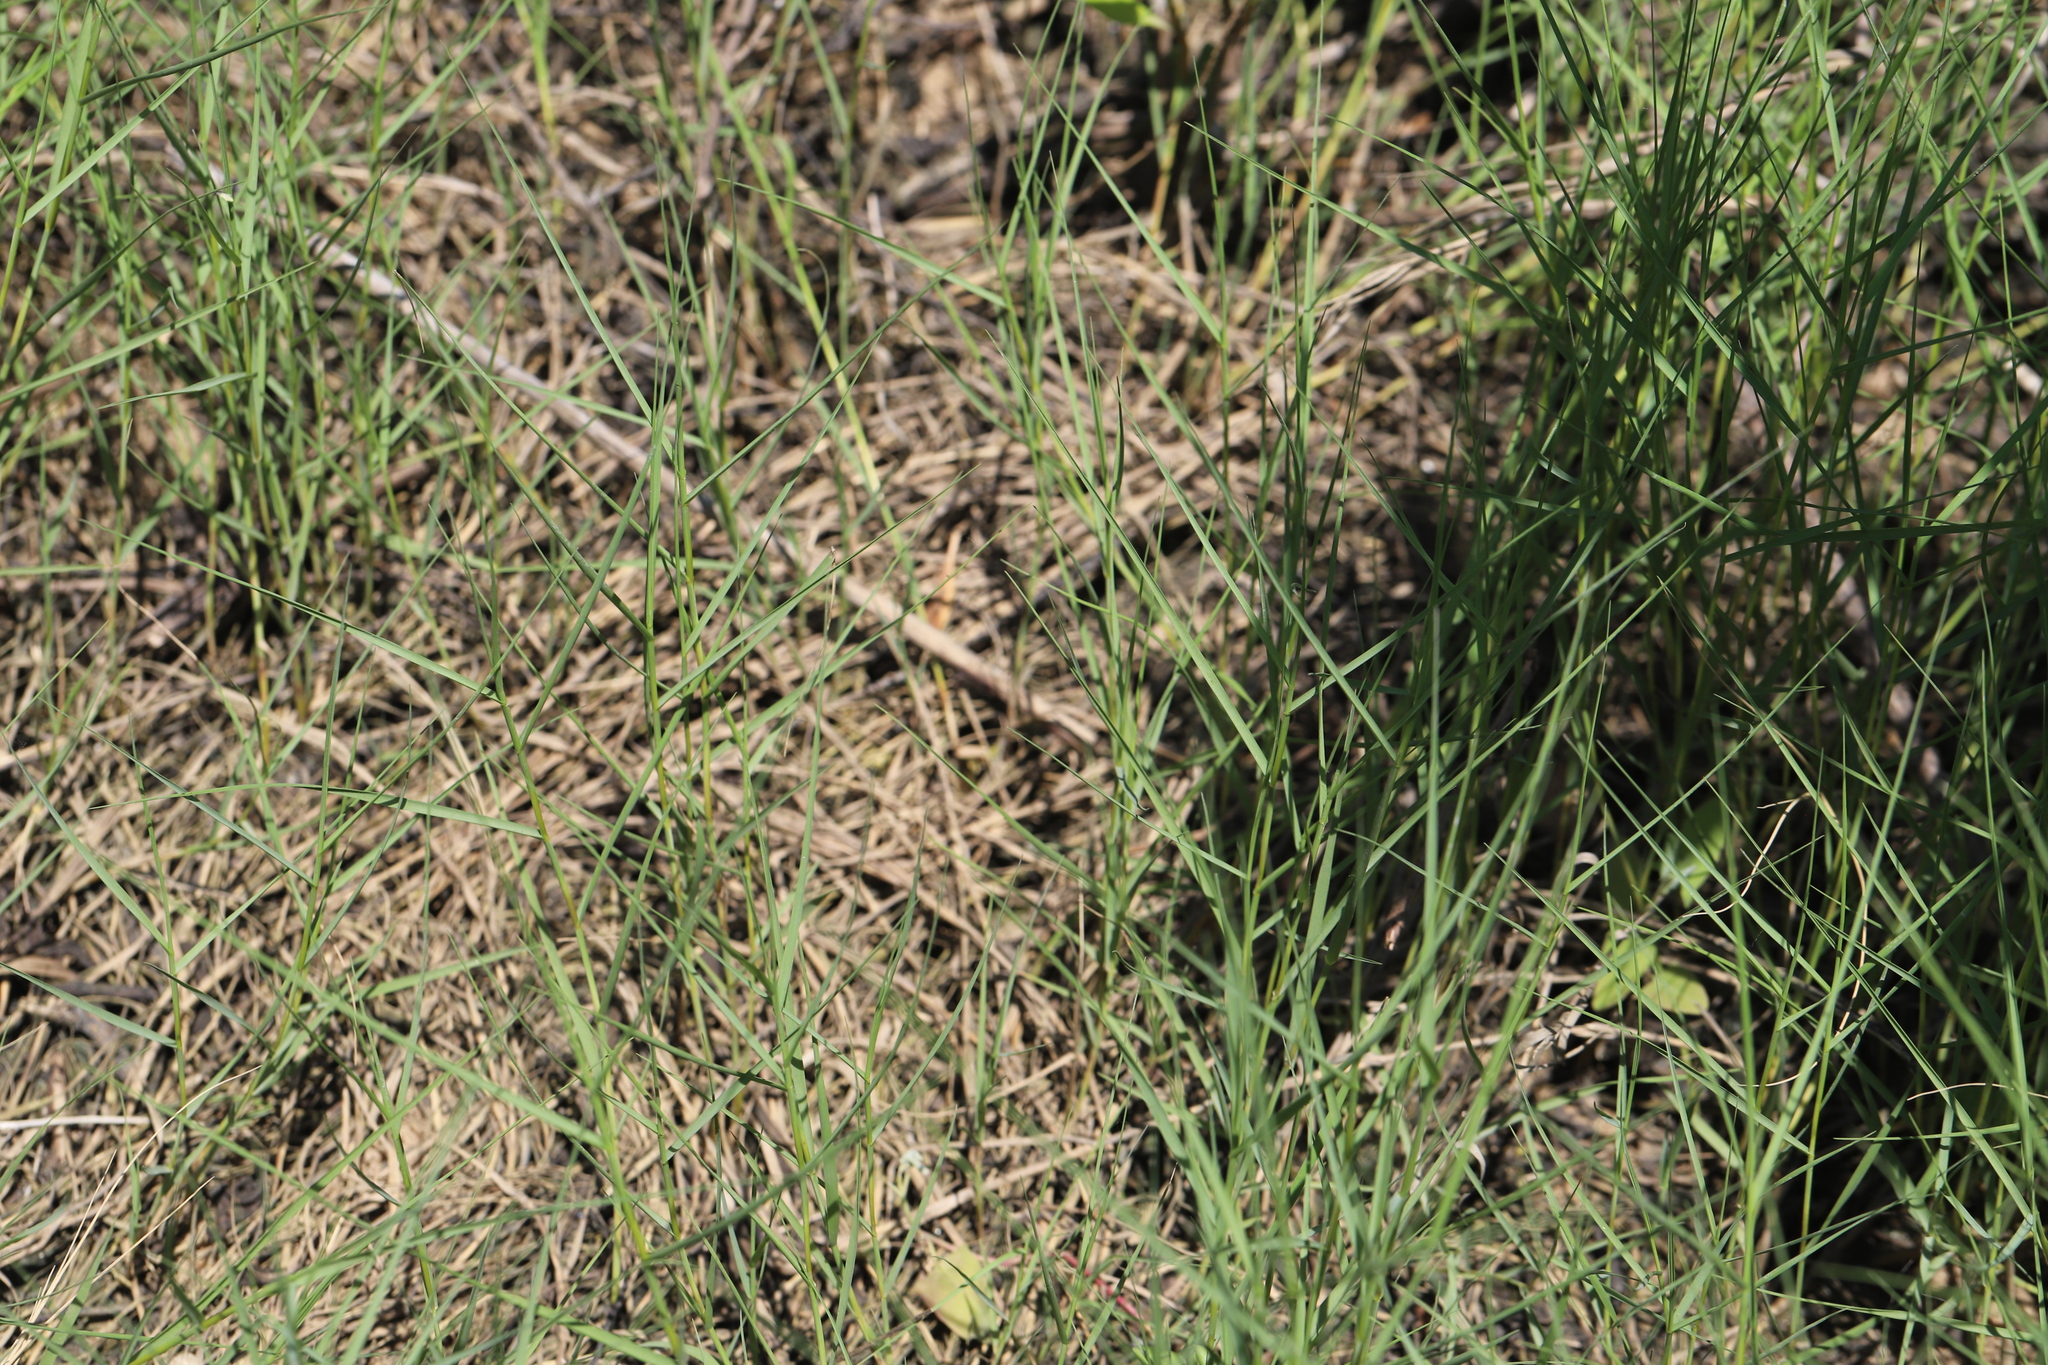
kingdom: Plantae
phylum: Tracheophyta
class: Liliopsida
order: Poales
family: Poaceae
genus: Distichlis
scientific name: Distichlis spicata
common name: Saltgrass
